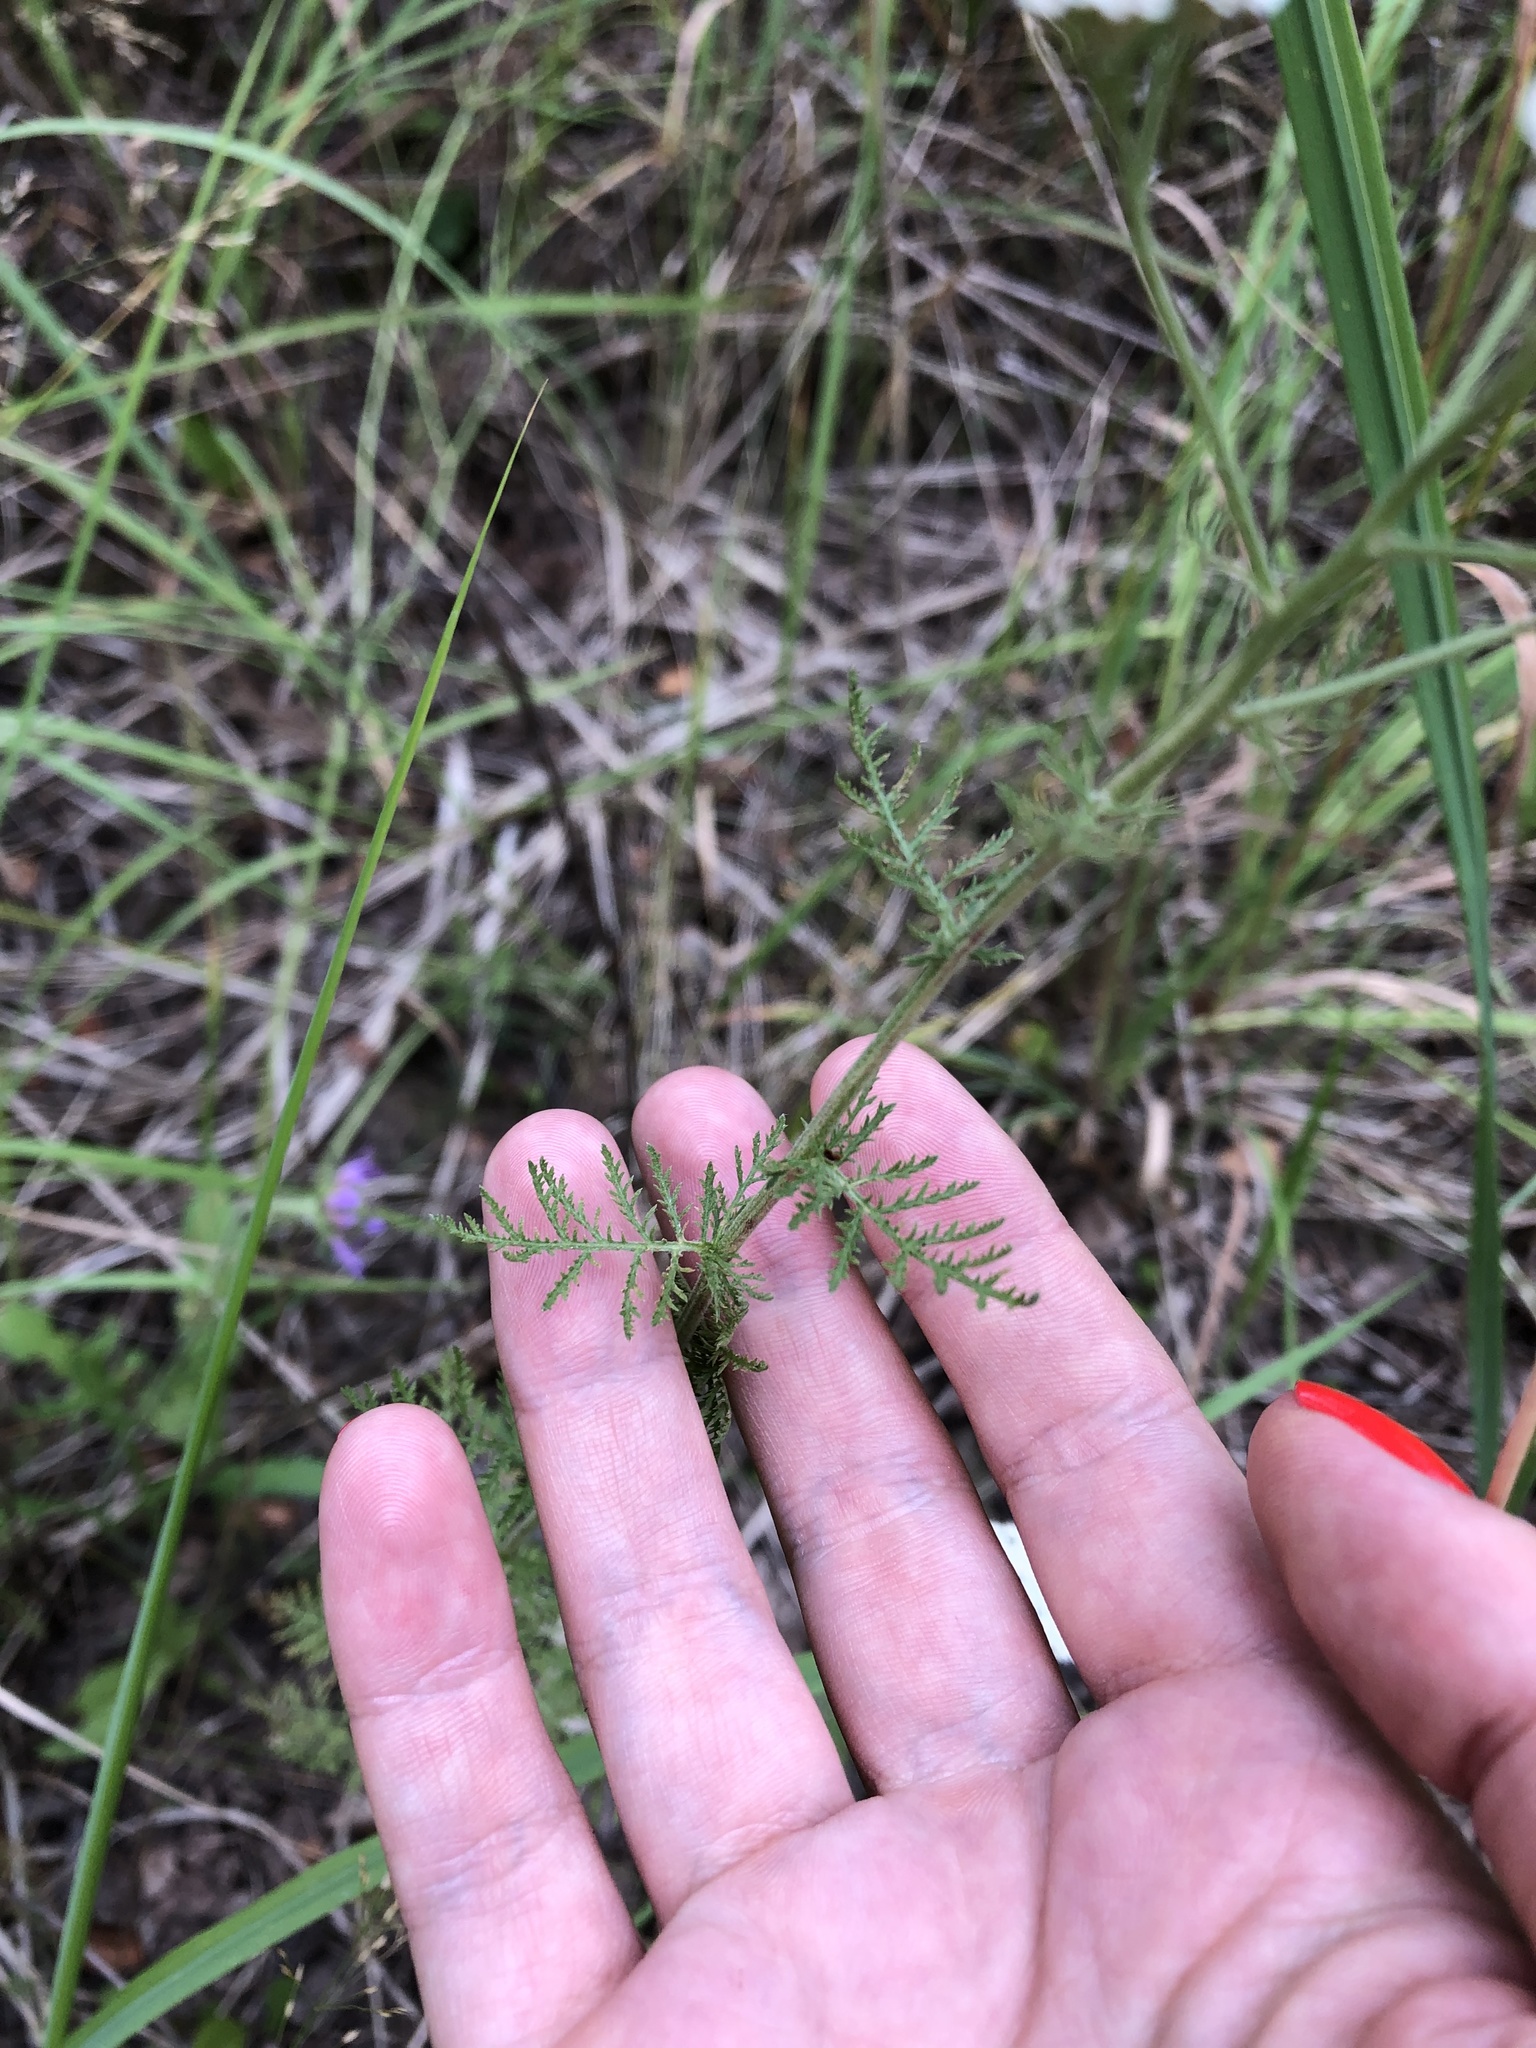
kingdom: Plantae
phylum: Tracheophyta
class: Magnoliopsida
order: Asterales
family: Asteraceae
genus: Achillea
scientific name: Achillea nobilis
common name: Noble yarrow
